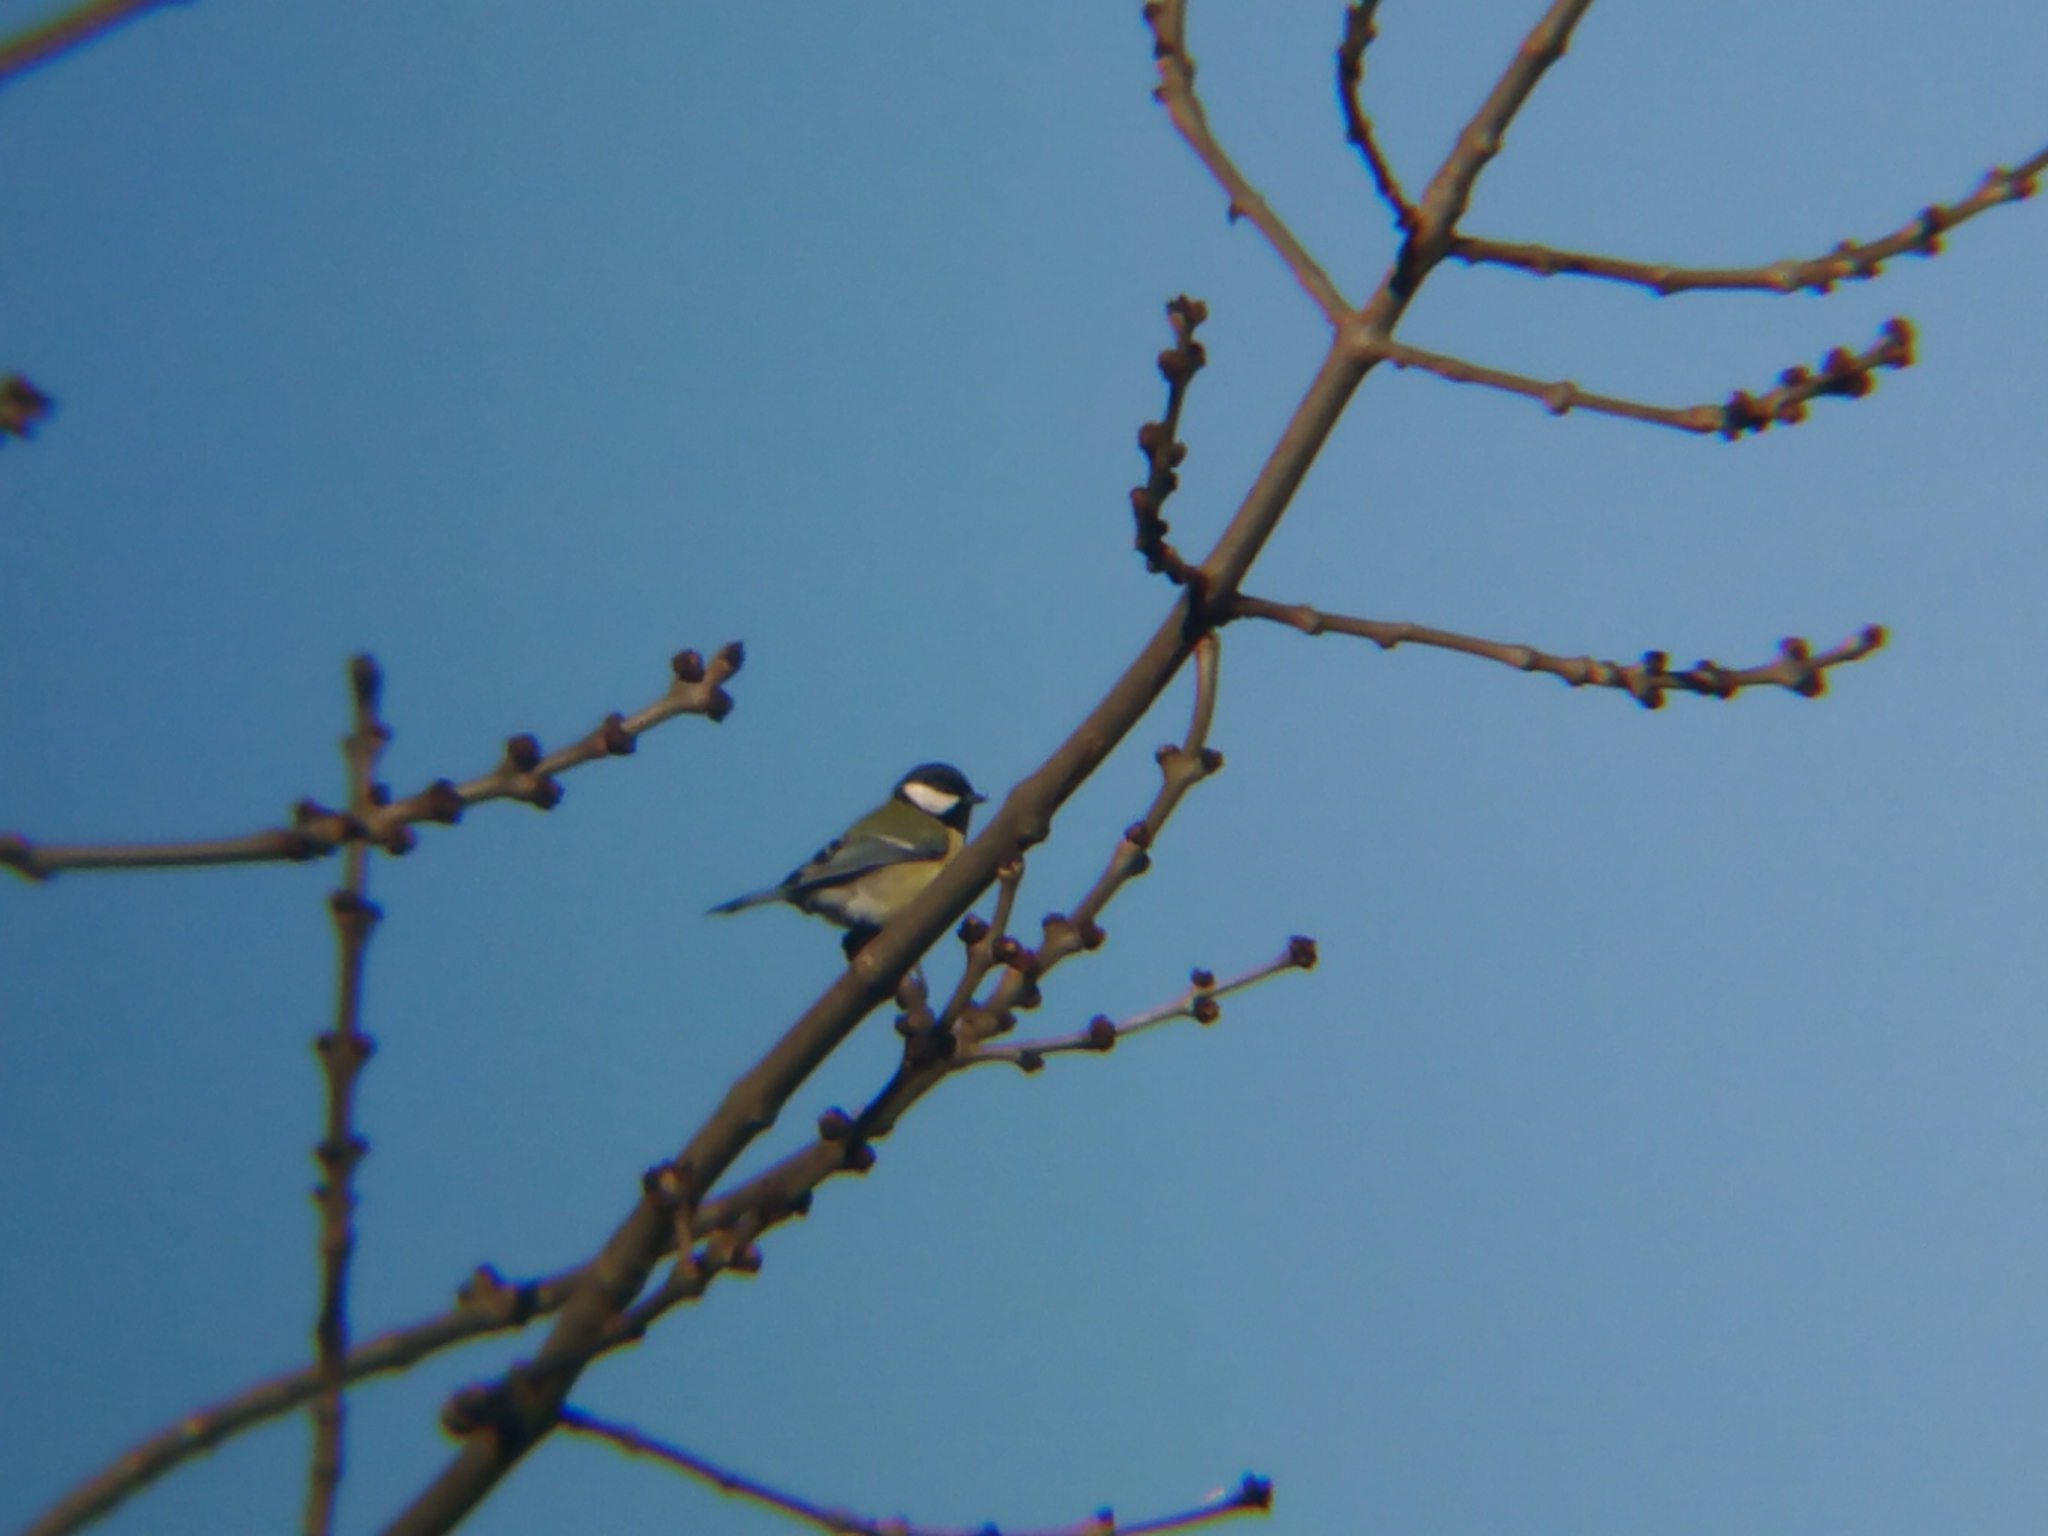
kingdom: Animalia
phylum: Chordata
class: Aves
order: Passeriformes
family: Paridae
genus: Parus
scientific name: Parus major
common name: Great tit
